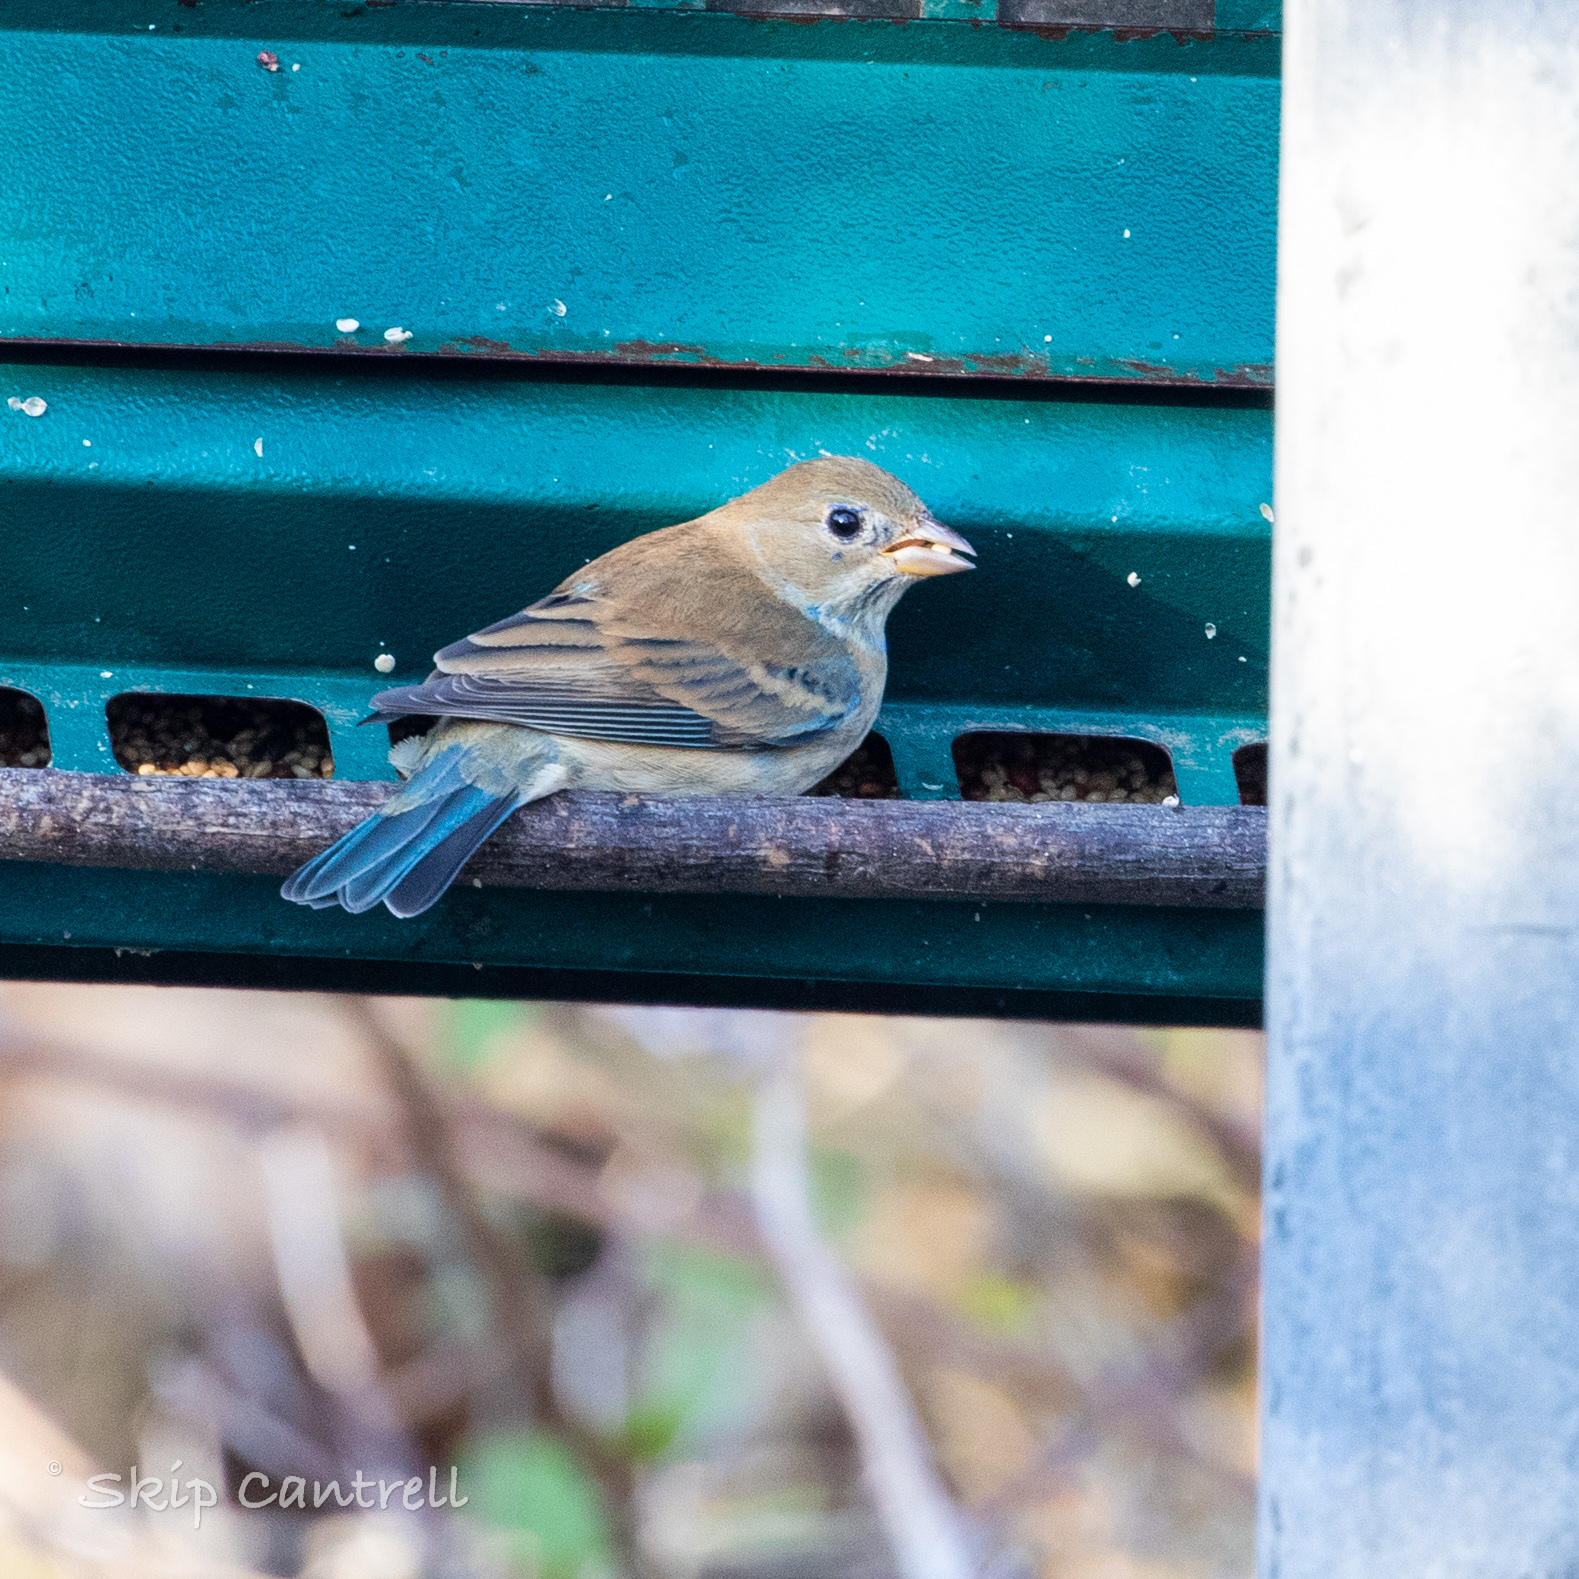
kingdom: Animalia
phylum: Chordata
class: Aves
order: Passeriformes
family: Cardinalidae
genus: Passerina
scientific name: Passerina cyanea
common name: Indigo bunting
